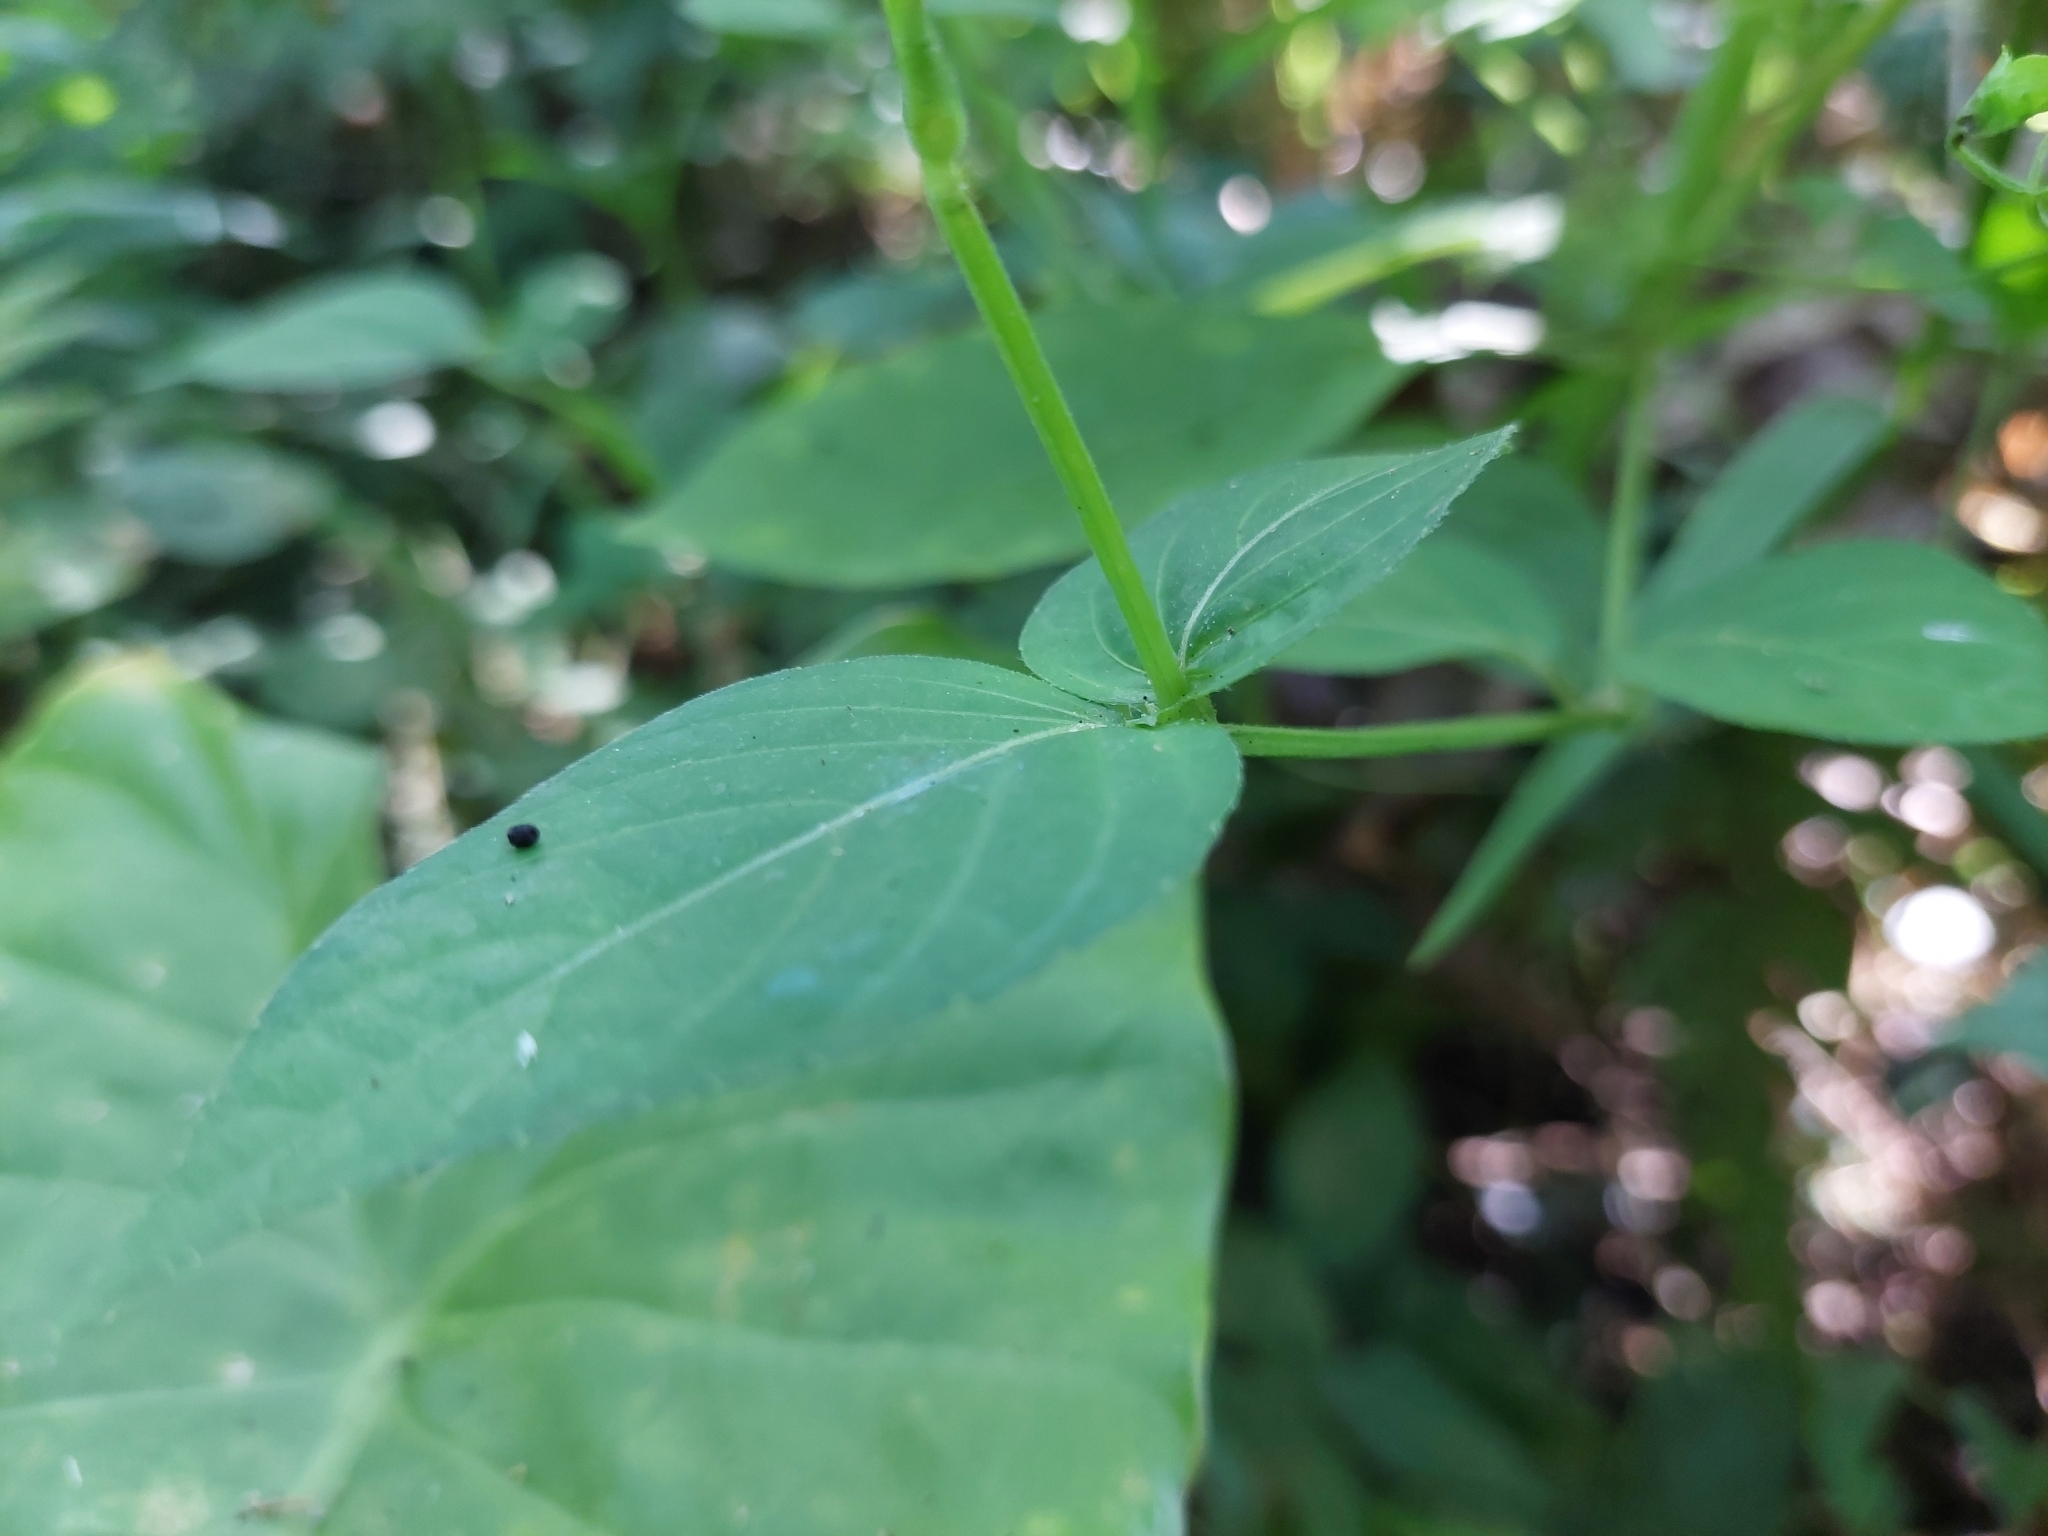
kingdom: Plantae
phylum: Tracheophyta
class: Magnoliopsida
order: Lamiales
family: Acanthaceae
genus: Asystasia
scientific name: Asystasia intrusa
